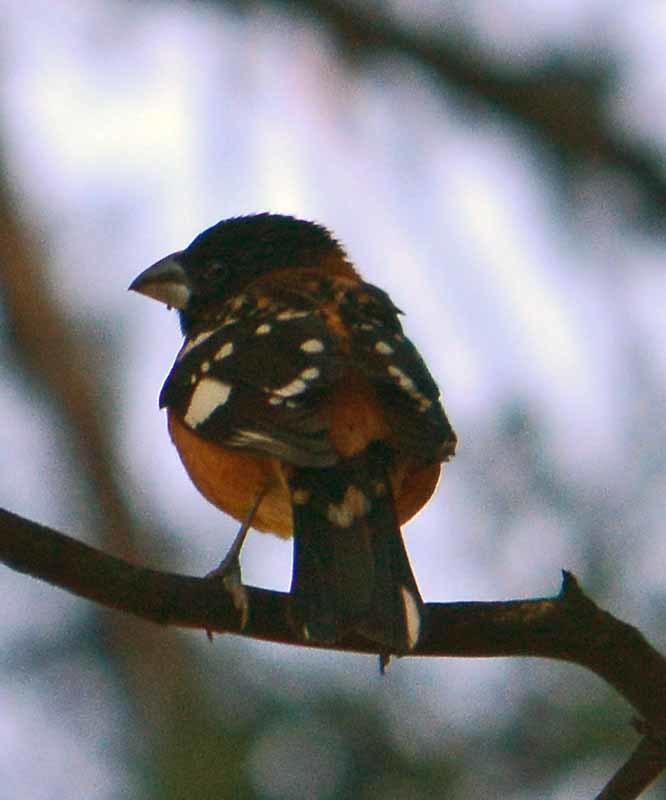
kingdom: Animalia
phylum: Chordata
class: Aves
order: Passeriformes
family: Cardinalidae
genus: Pheucticus
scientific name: Pheucticus melanocephalus
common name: Black-headed grosbeak
